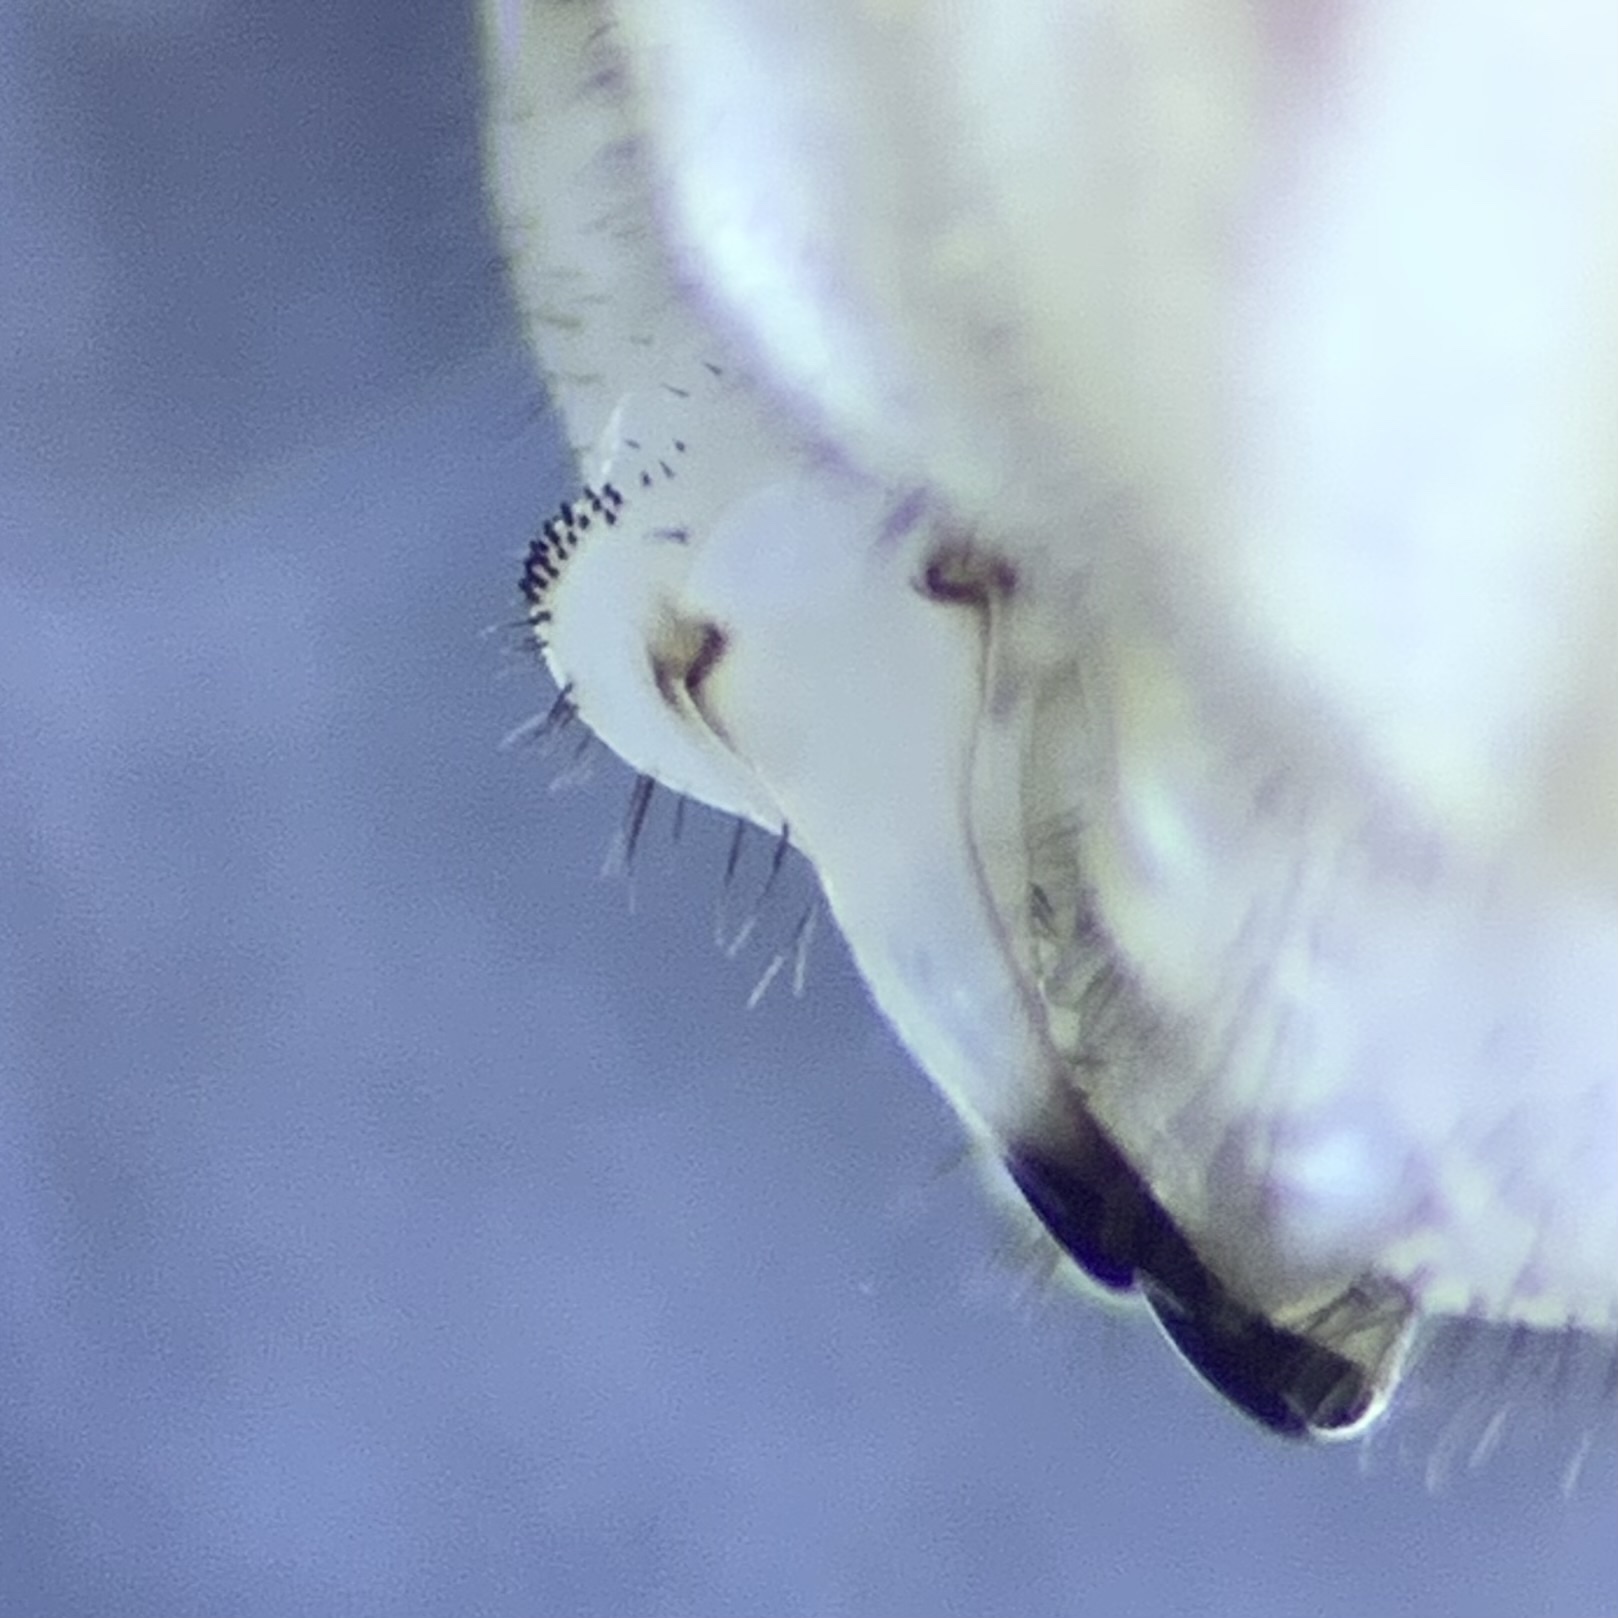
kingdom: Animalia
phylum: Arthropoda
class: Arachnida
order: Opiliones
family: Phalangiidae
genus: Dasylobus
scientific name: Dasylobus graniferus
